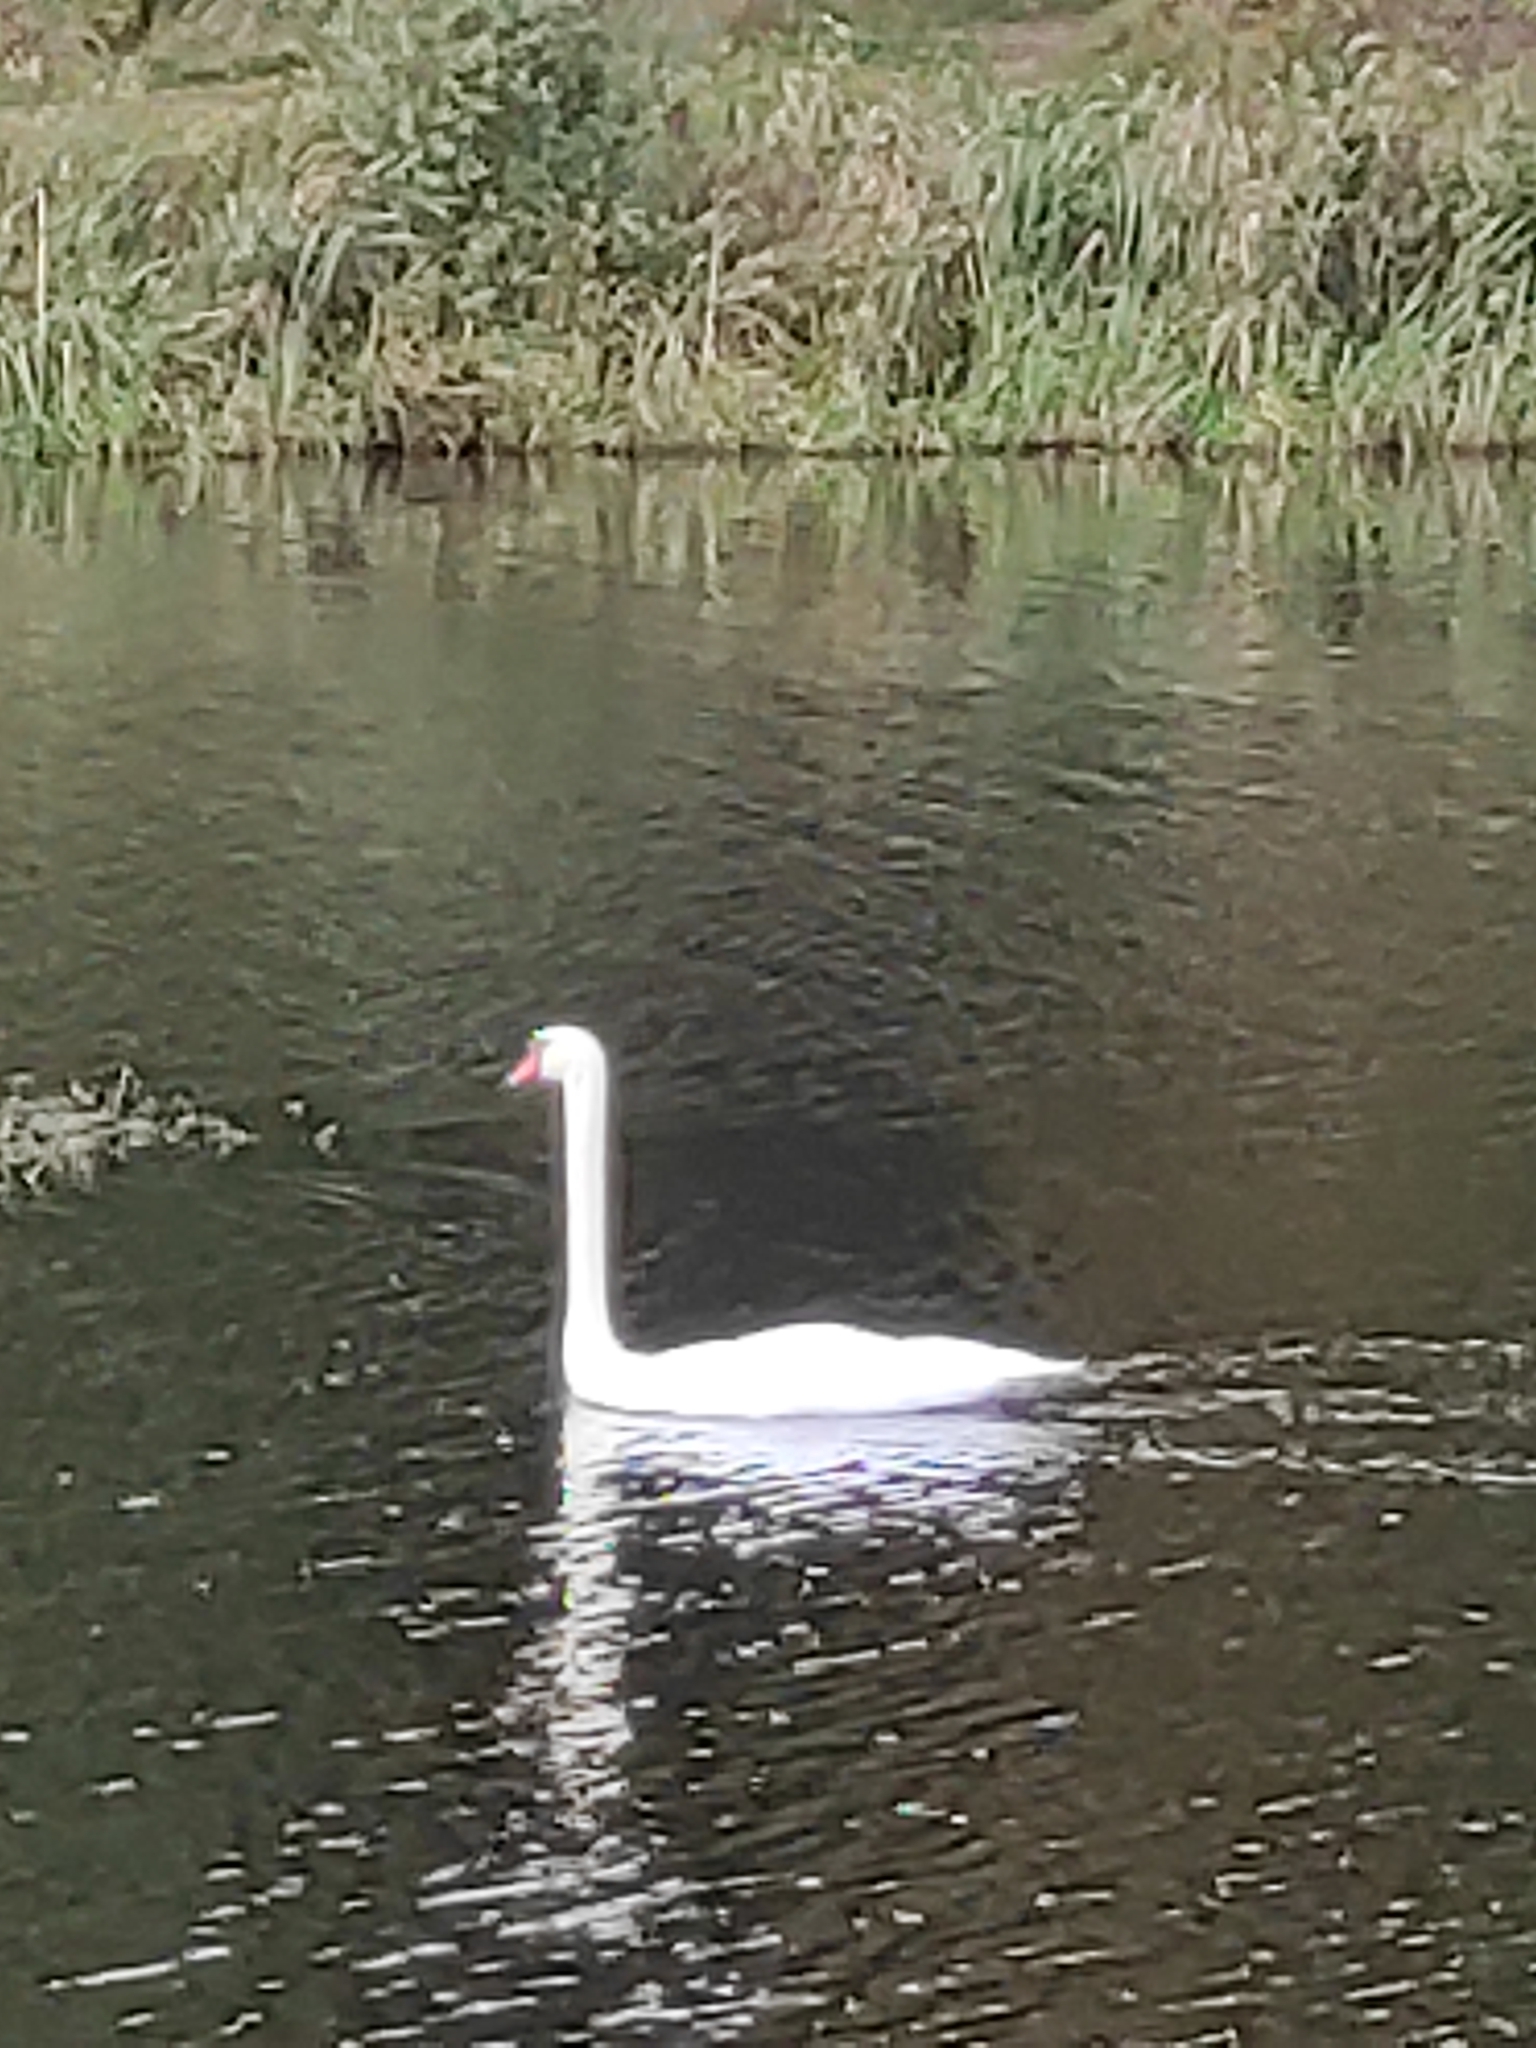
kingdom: Animalia
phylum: Chordata
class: Aves
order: Anseriformes
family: Anatidae
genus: Cygnus
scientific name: Cygnus olor
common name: Mute swan
